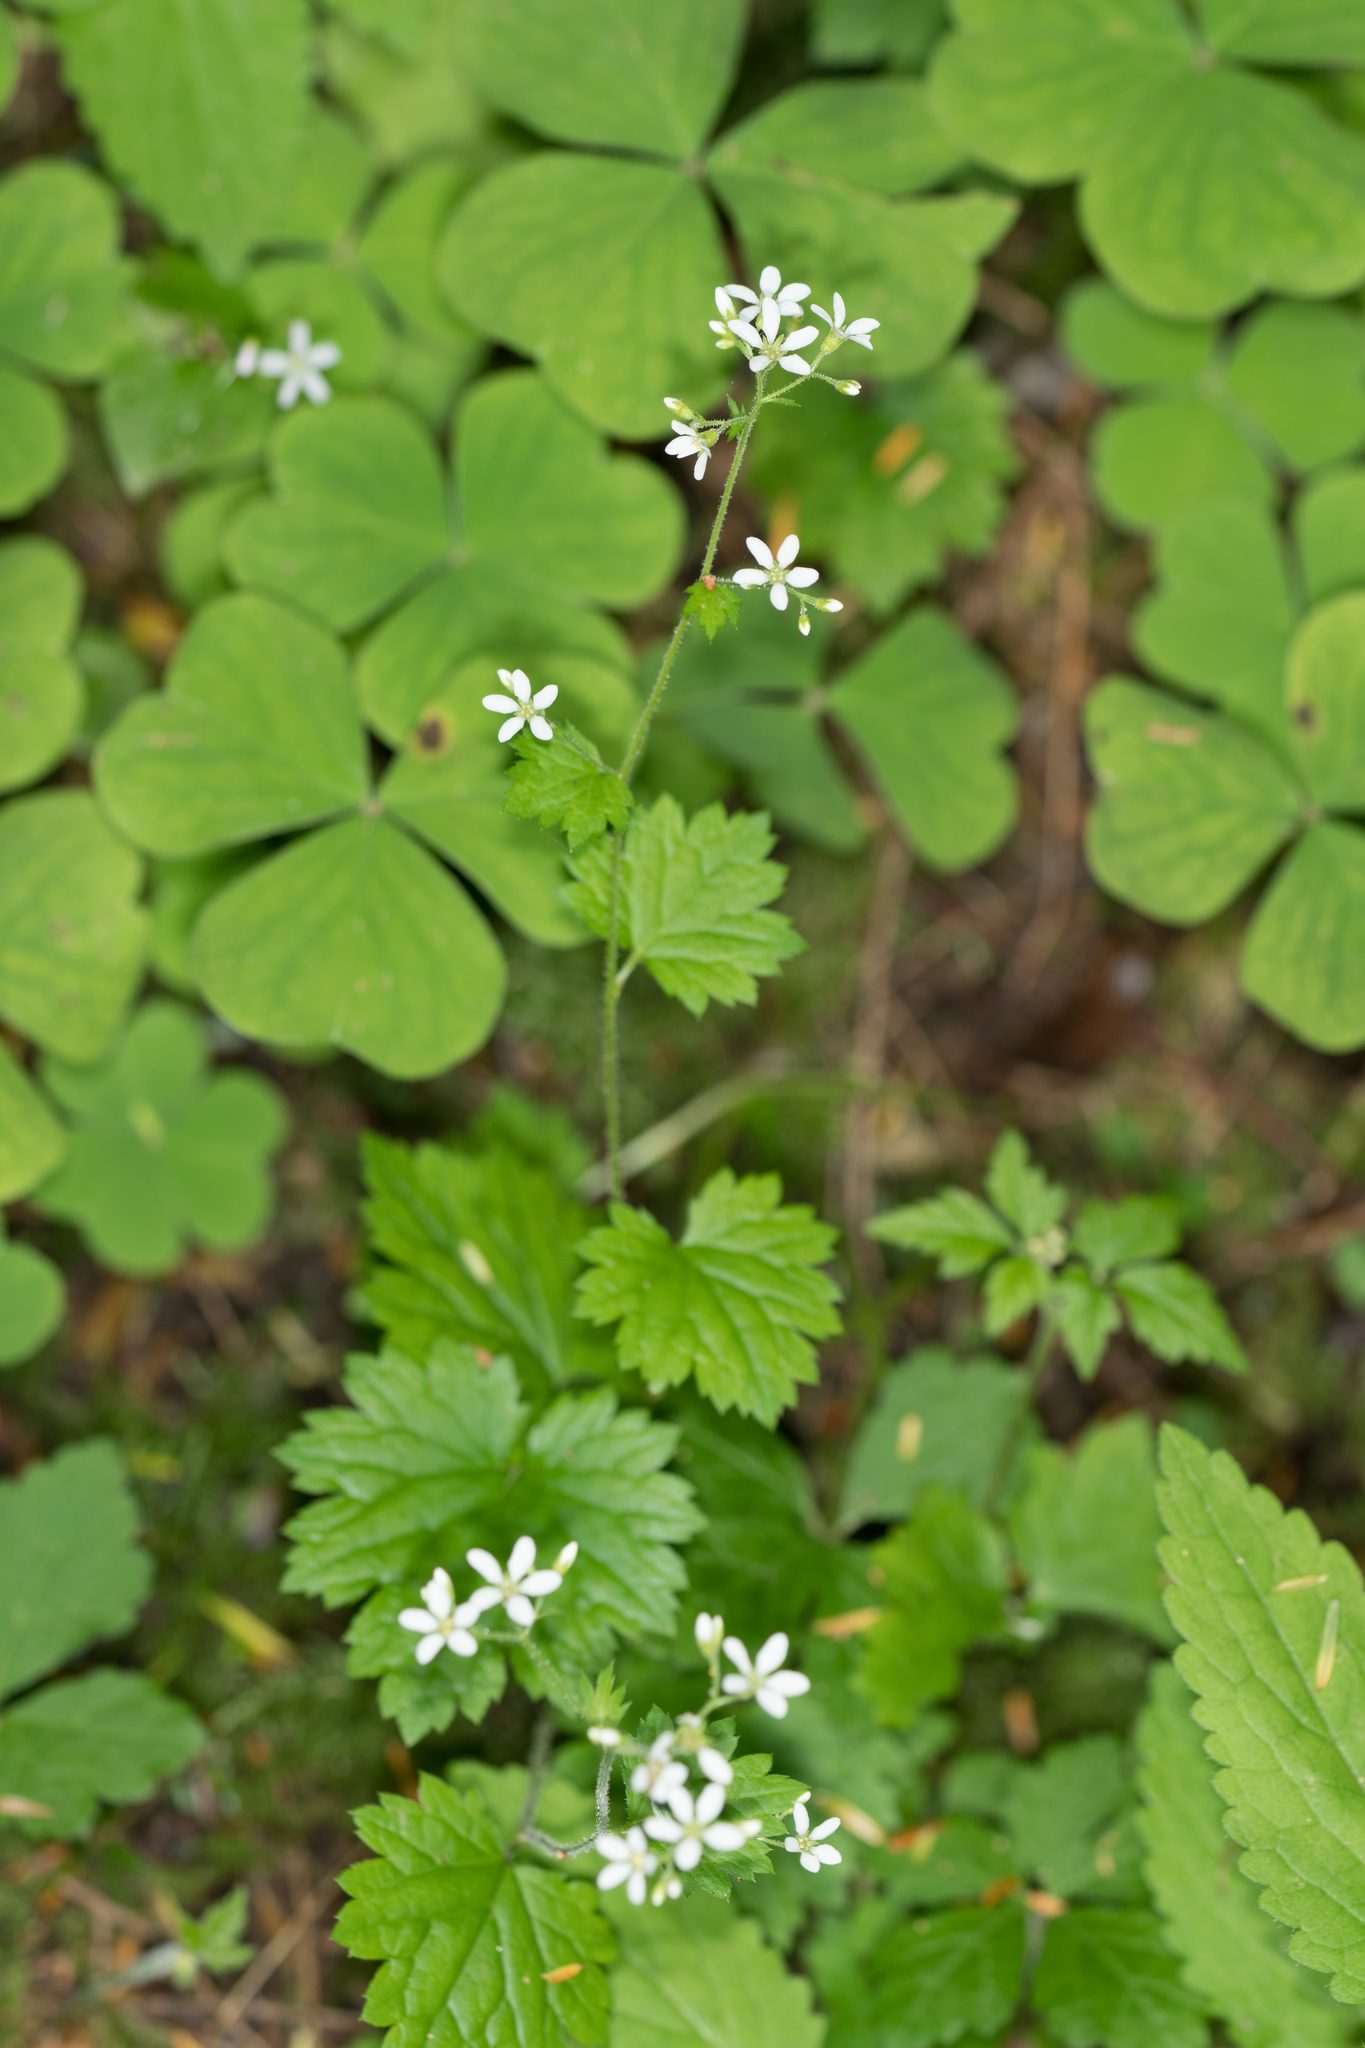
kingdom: Plantae
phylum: Tracheophyta
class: Magnoliopsida
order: Saxifragales
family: Saxifragaceae
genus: Boykinia
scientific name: Boykinia occidentalis
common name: Coast boykinia
